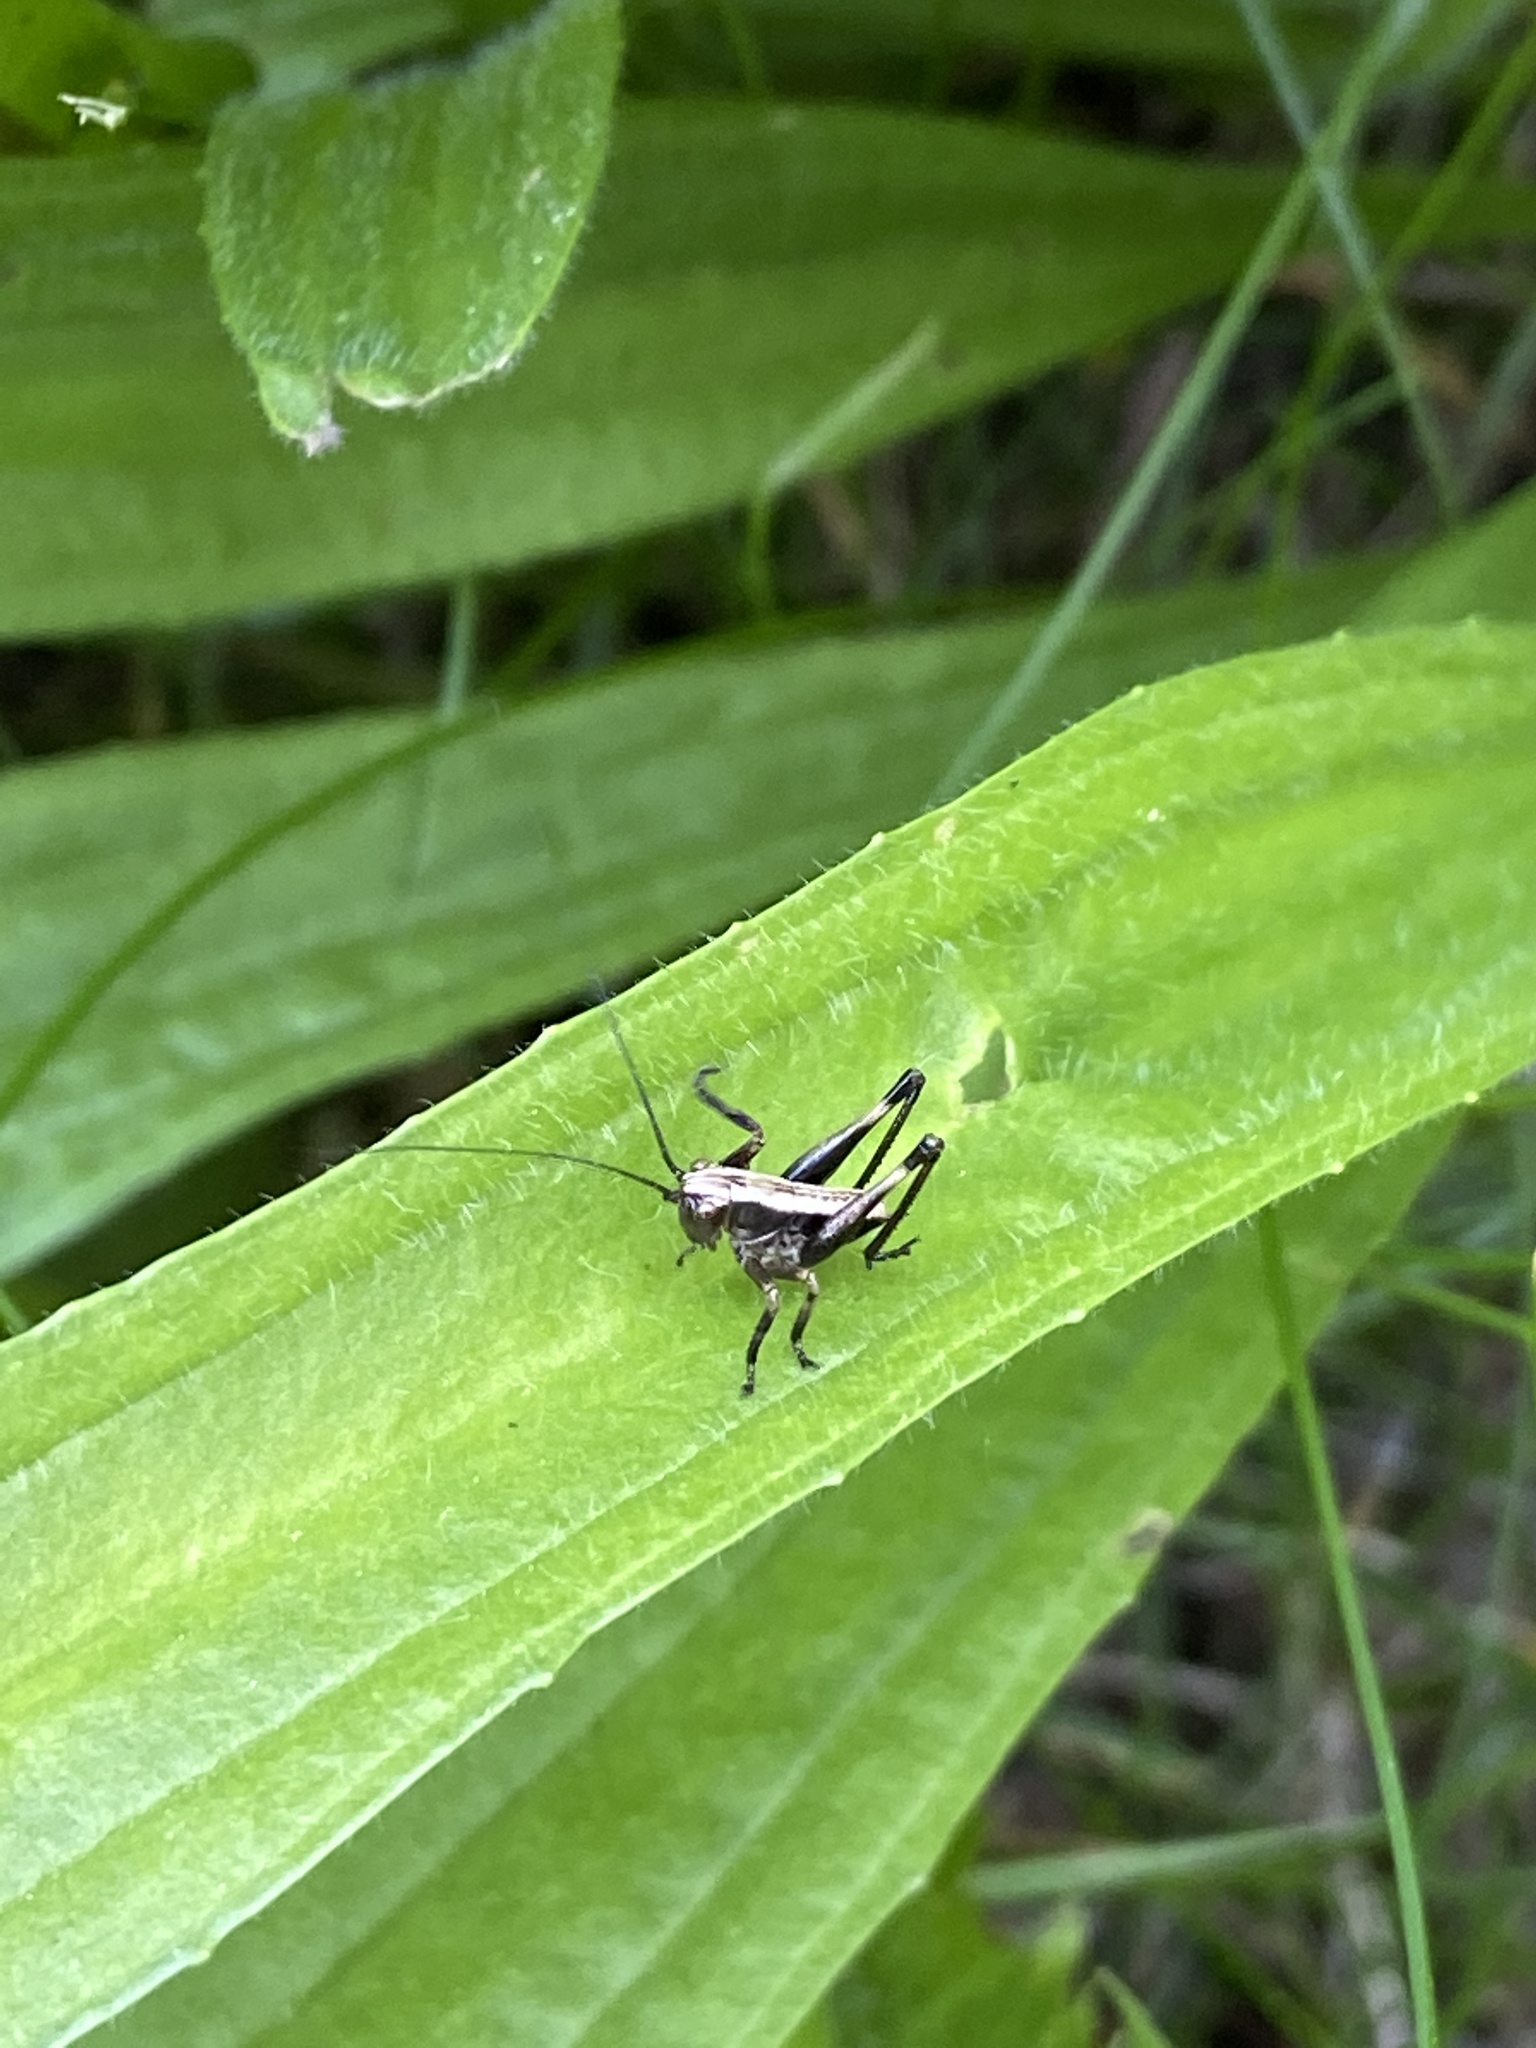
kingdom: Animalia
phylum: Arthropoda
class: Insecta
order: Orthoptera
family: Tettigoniidae
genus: Pholidoptera
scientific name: Pholidoptera griseoaptera
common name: Dark bush-cricket
